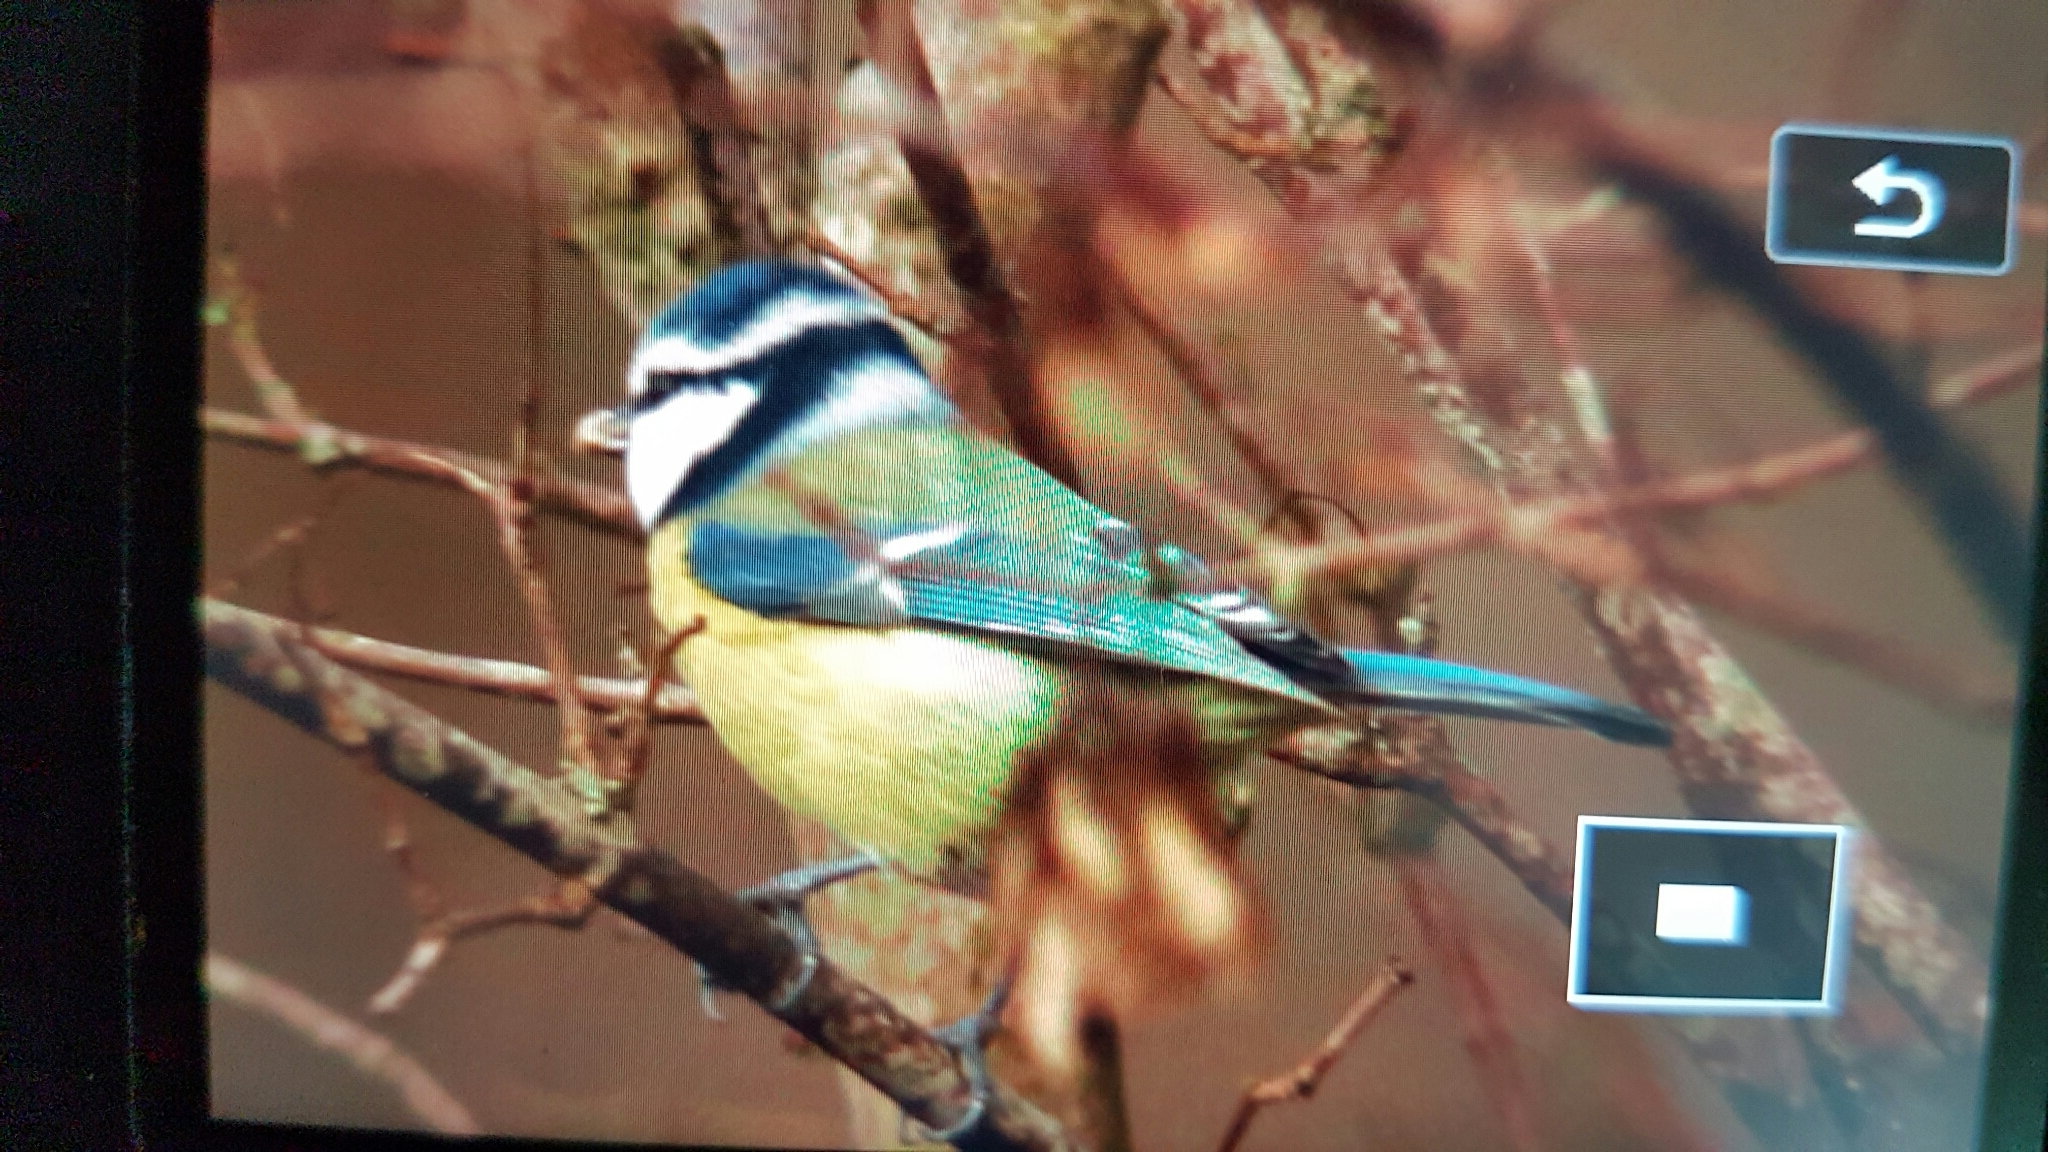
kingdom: Animalia
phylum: Chordata
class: Aves
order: Passeriformes
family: Paridae
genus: Cyanistes
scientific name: Cyanistes caeruleus
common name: Eurasian blue tit
